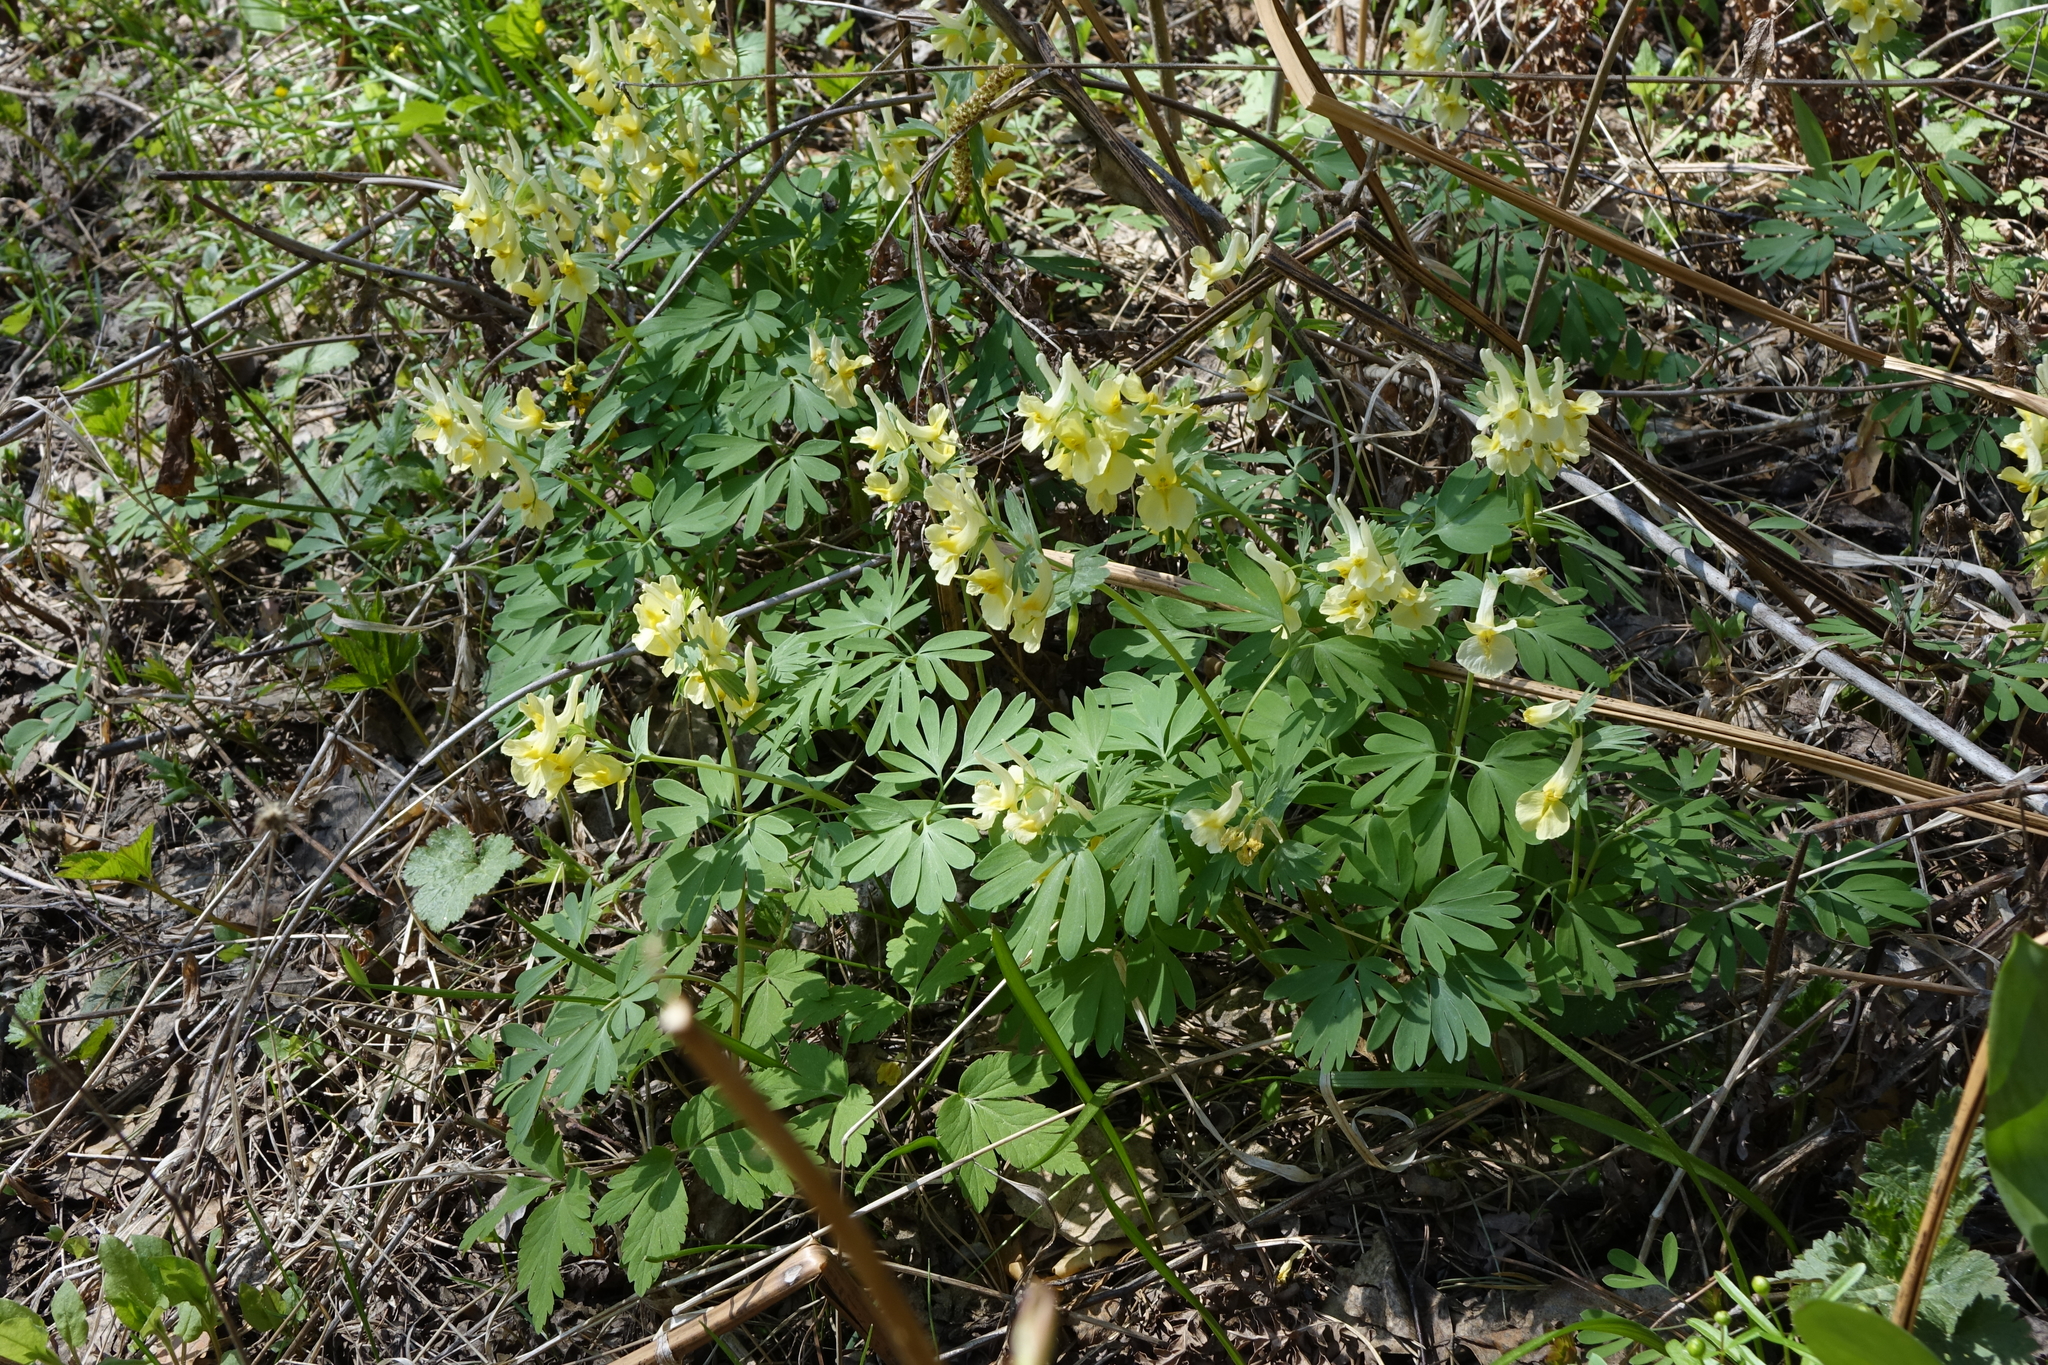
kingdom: Plantae
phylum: Tracheophyta
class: Magnoliopsida
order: Ranunculales
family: Papaveraceae
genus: Corydalis
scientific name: Corydalis bracteata
